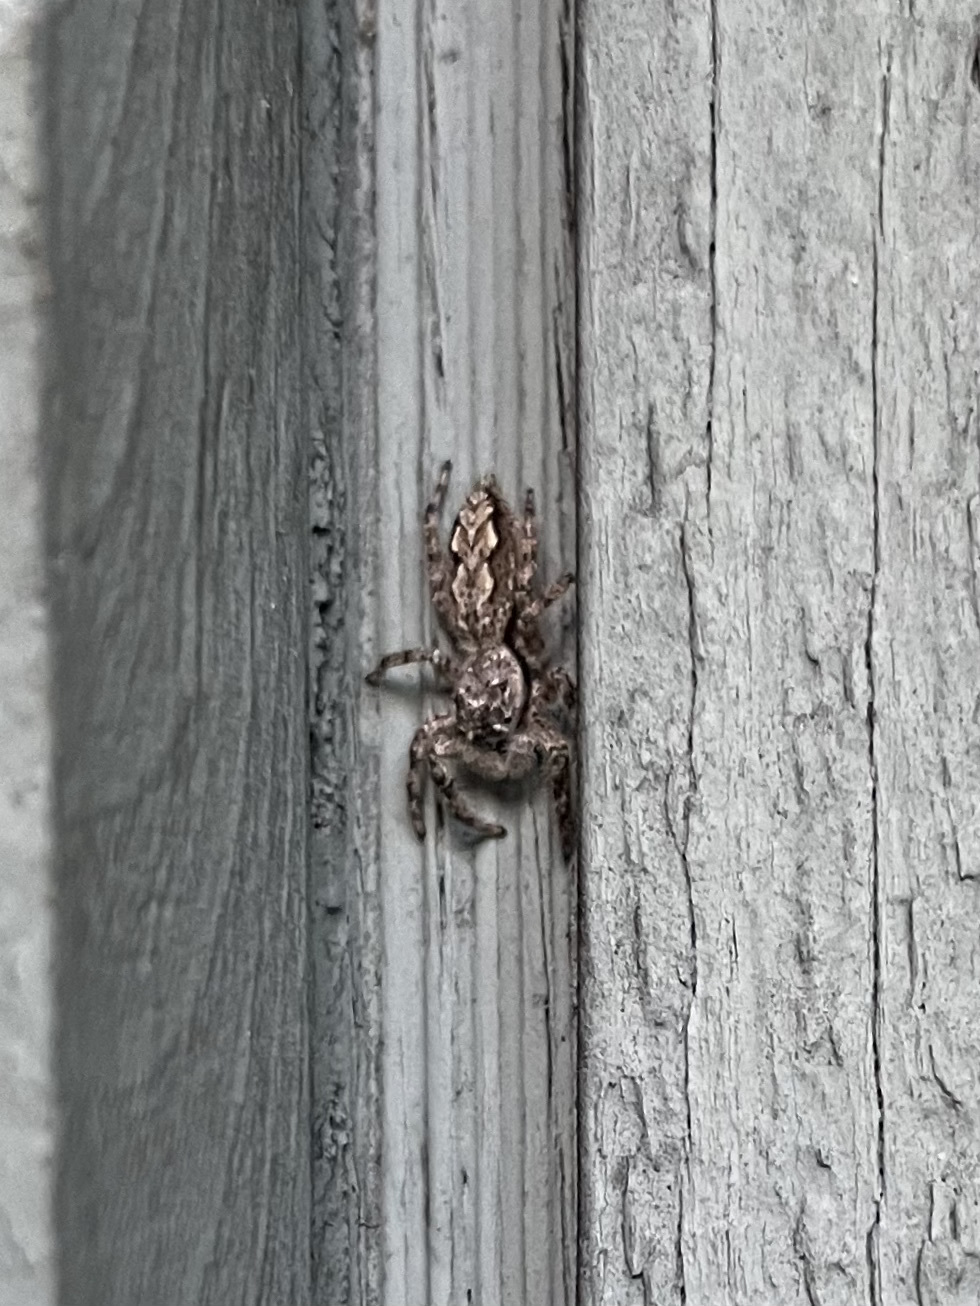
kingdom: Animalia
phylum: Arthropoda
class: Arachnida
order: Araneae
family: Salticidae
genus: Platycryptus
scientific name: Platycryptus undatus
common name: Tan jumping spider
